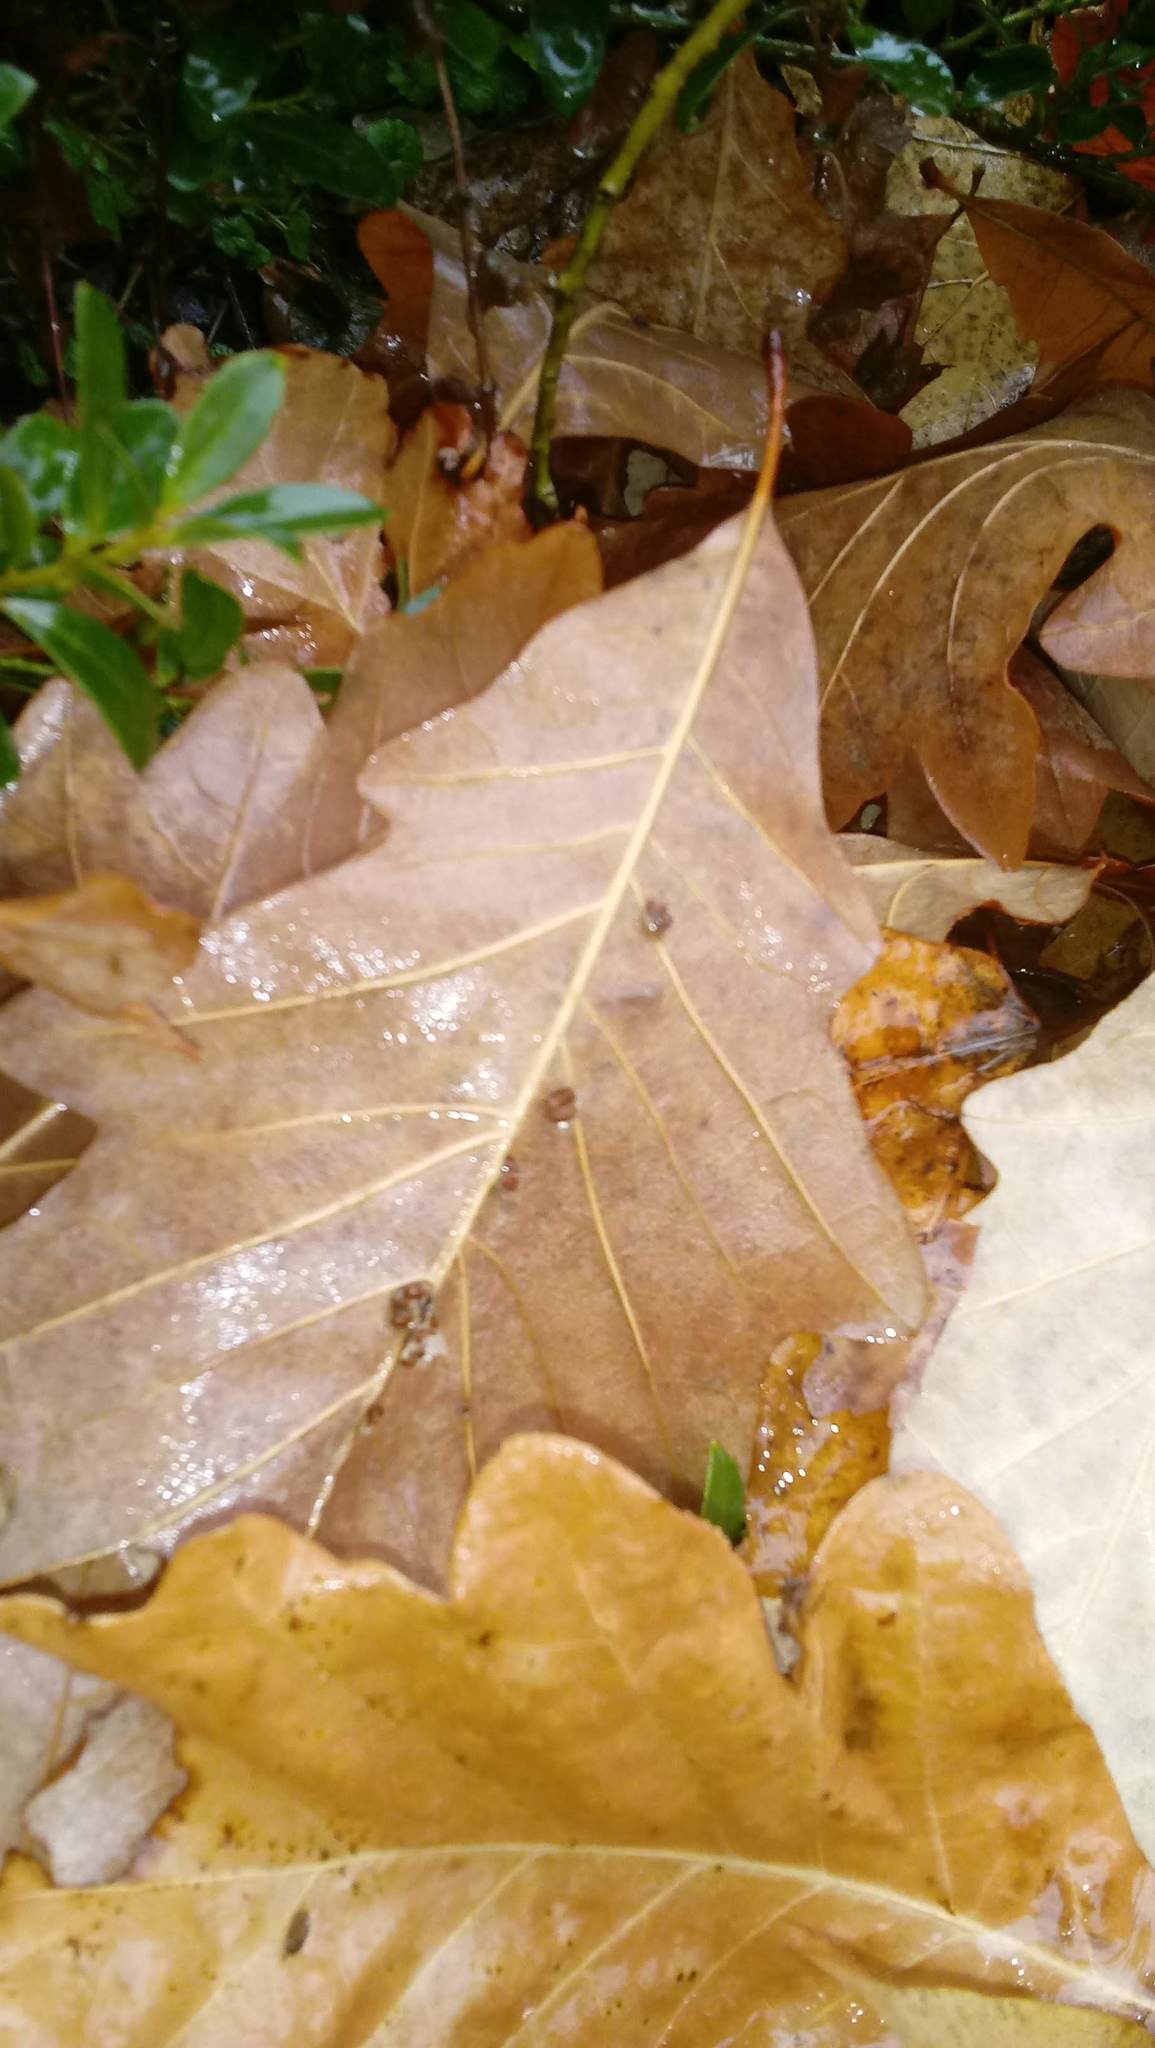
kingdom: Animalia
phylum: Arthropoda
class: Insecta
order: Hymenoptera
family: Cynipidae
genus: Andricus
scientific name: Andricus Druon ignotum
